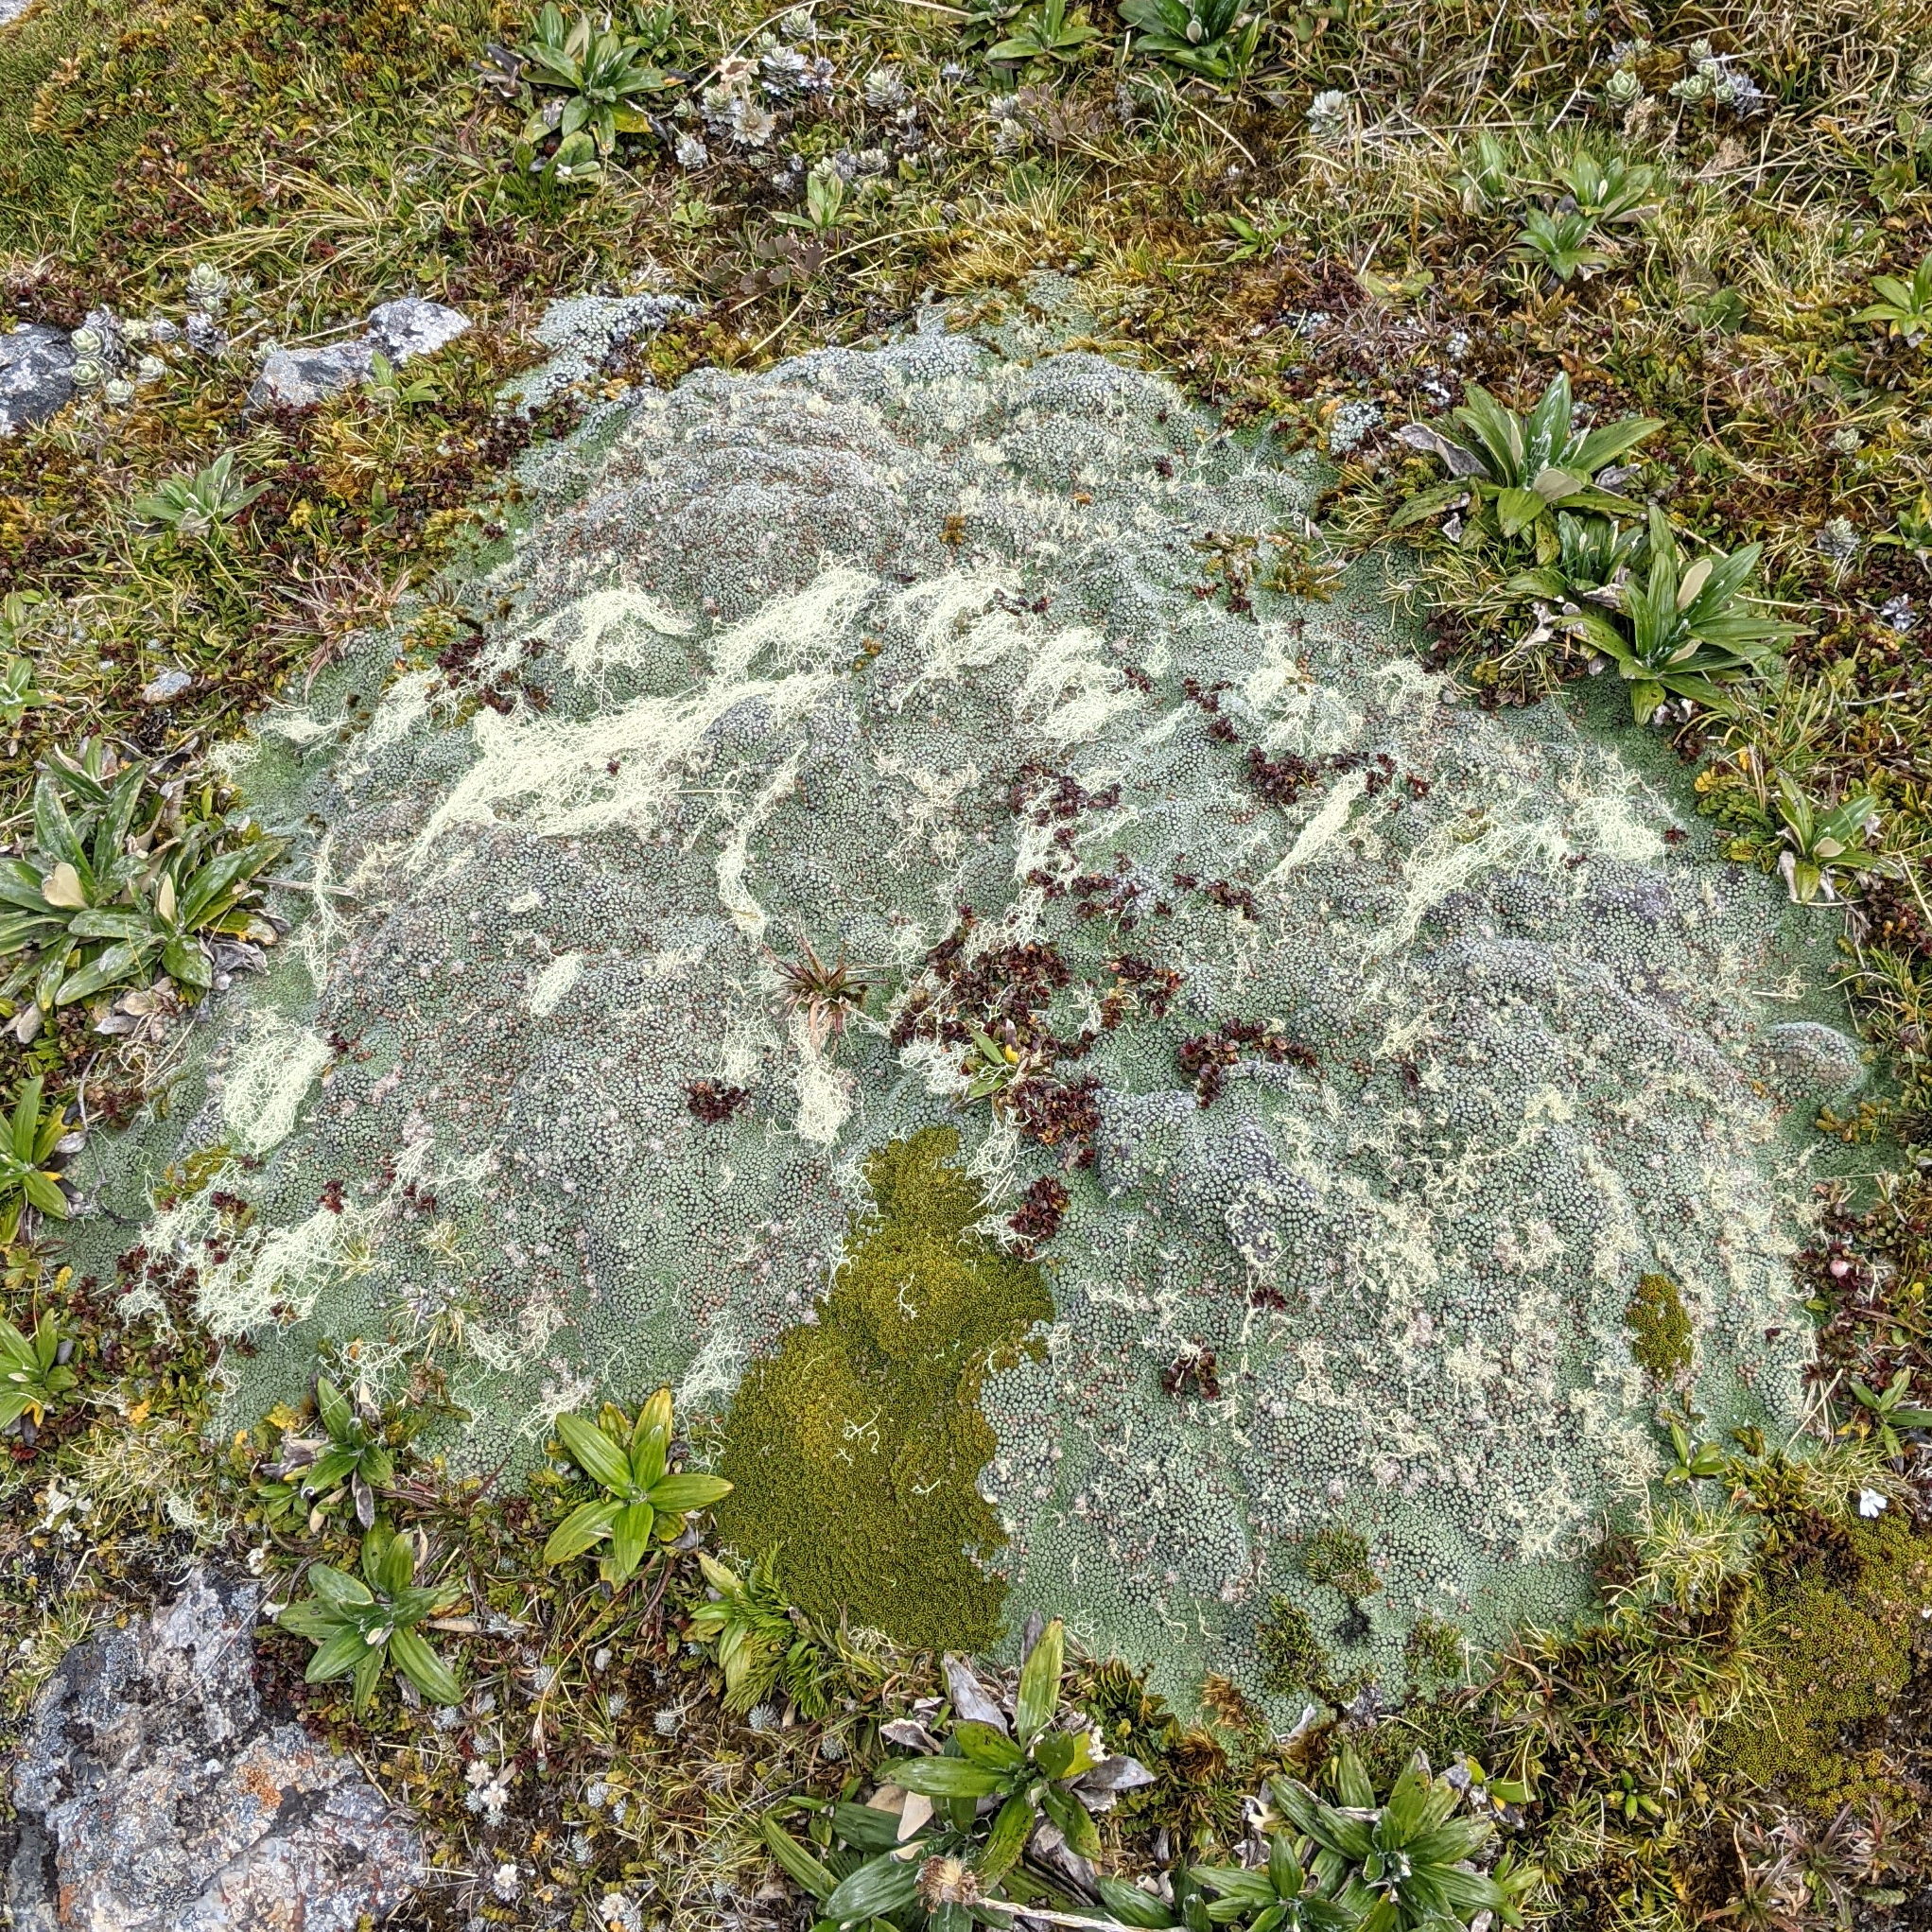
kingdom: Plantae
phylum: Tracheophyta
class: Magnoliopsida
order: Asterales
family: Asteraceae
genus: Raoulia
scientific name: Raoulia rubra
